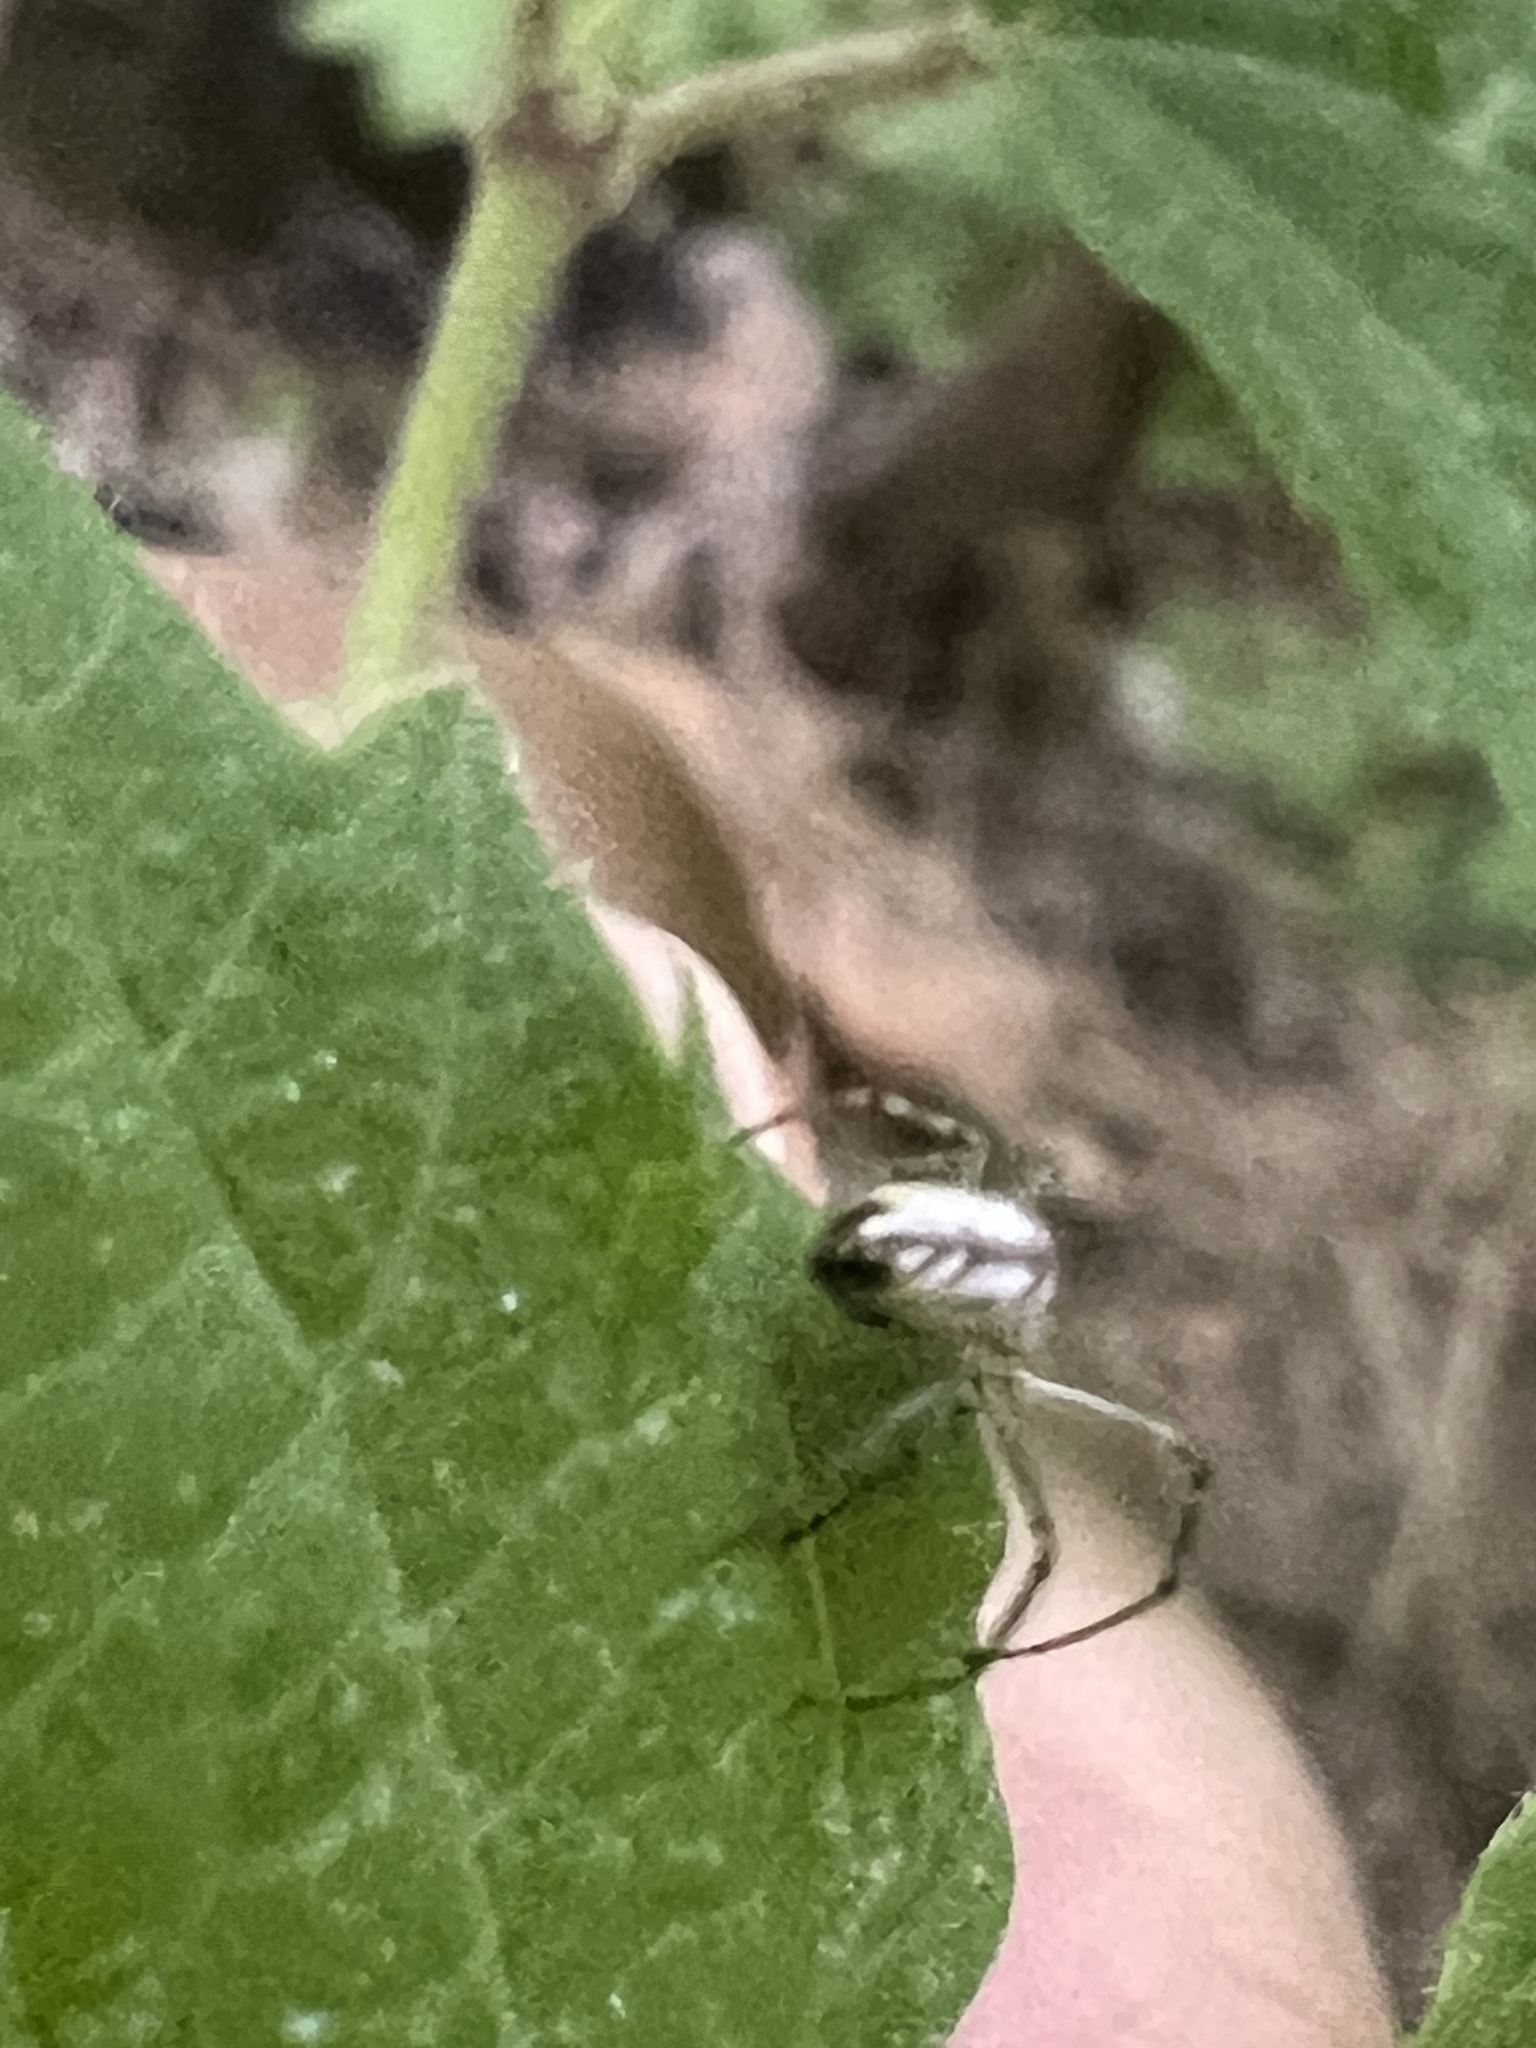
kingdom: Animalia
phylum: Arthropoda
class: Arachnida
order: Araneae
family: Tetragnathidae
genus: Leucauge
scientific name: Leucauge venusta
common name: Longjawed orb weavers
